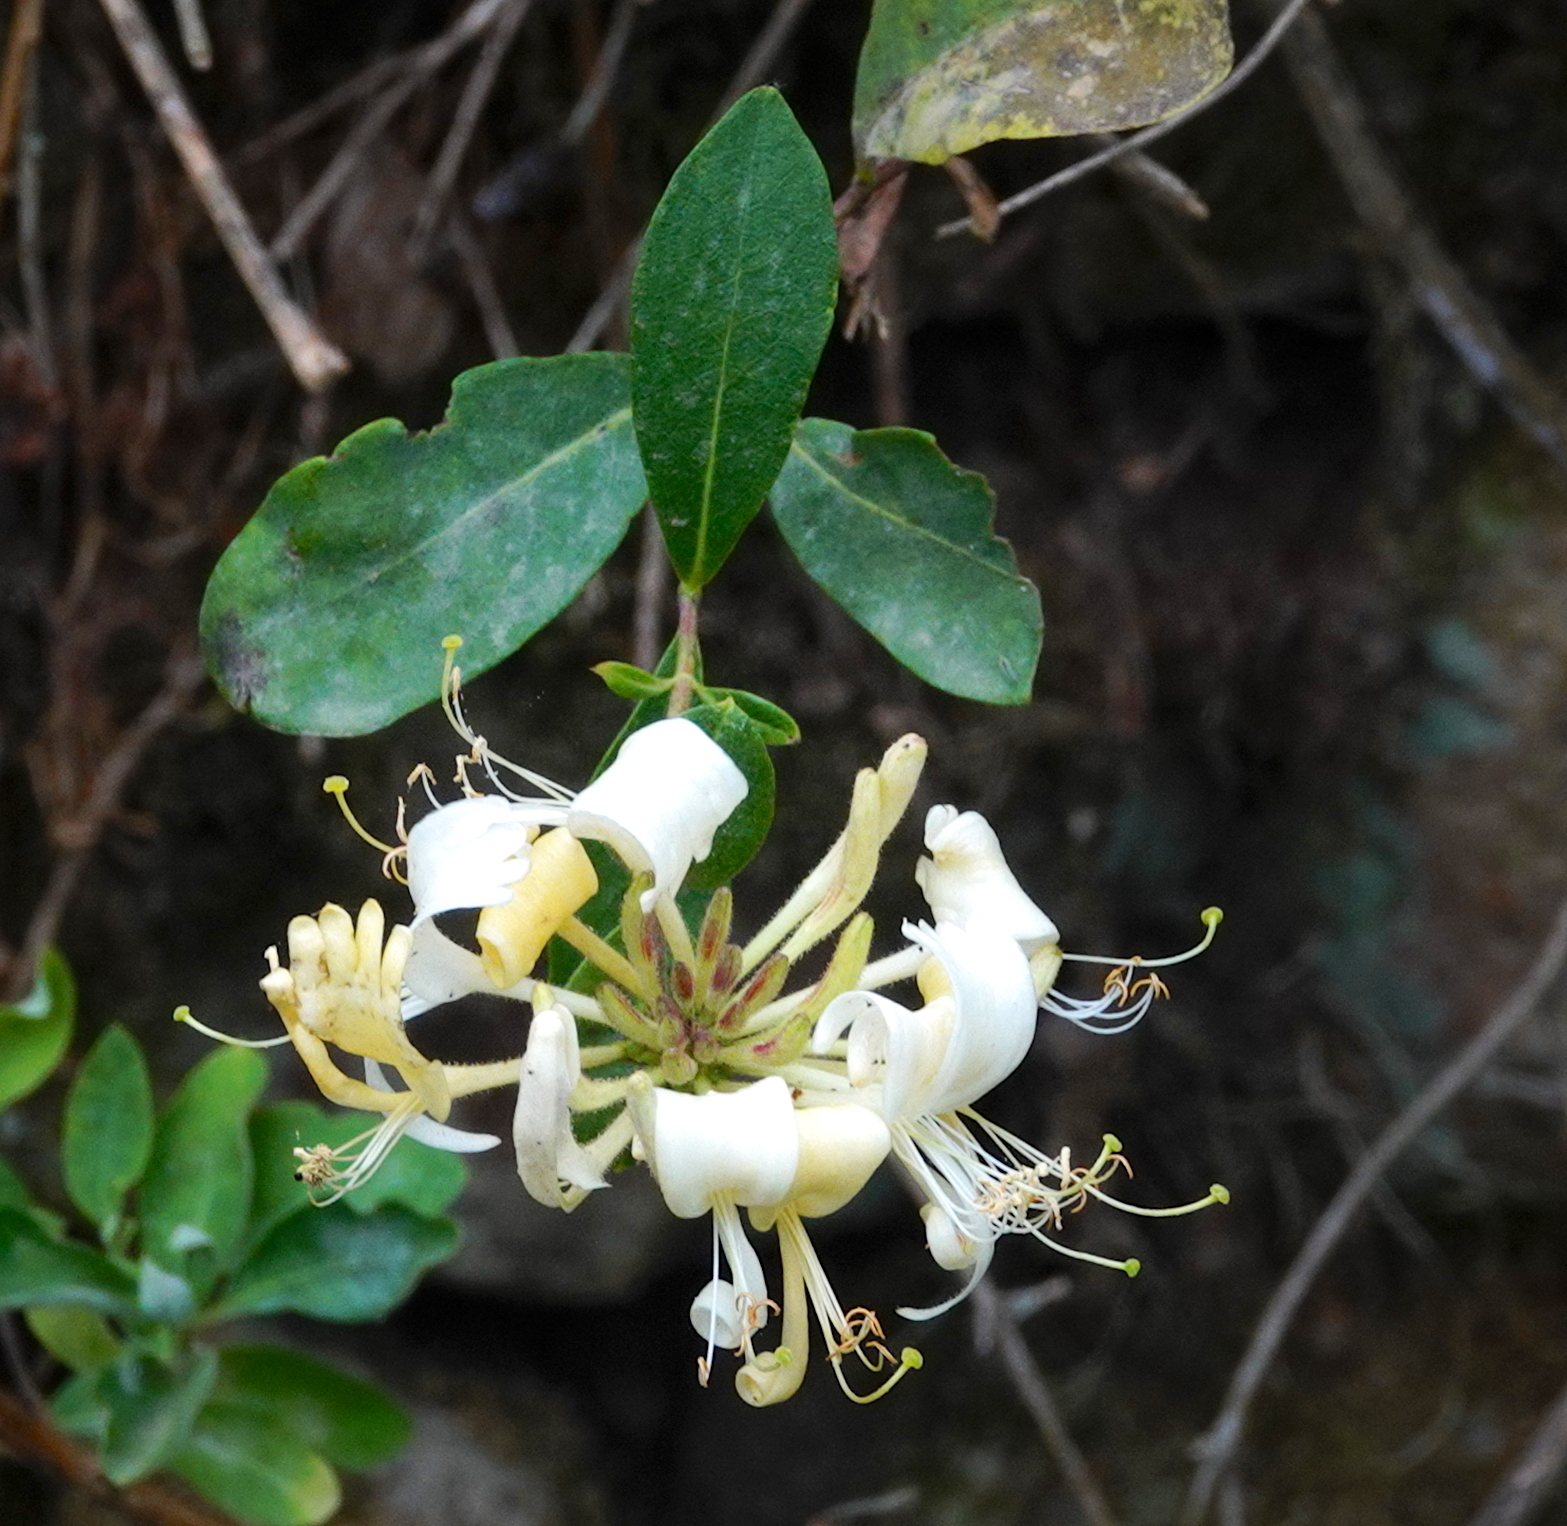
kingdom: Plantae
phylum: Tracheophyta
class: Magnoliopsida
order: Dipsacales
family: Caprifoliaceae
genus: Lonicera
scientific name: Lonicera periclymenum
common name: European honeysuckle
